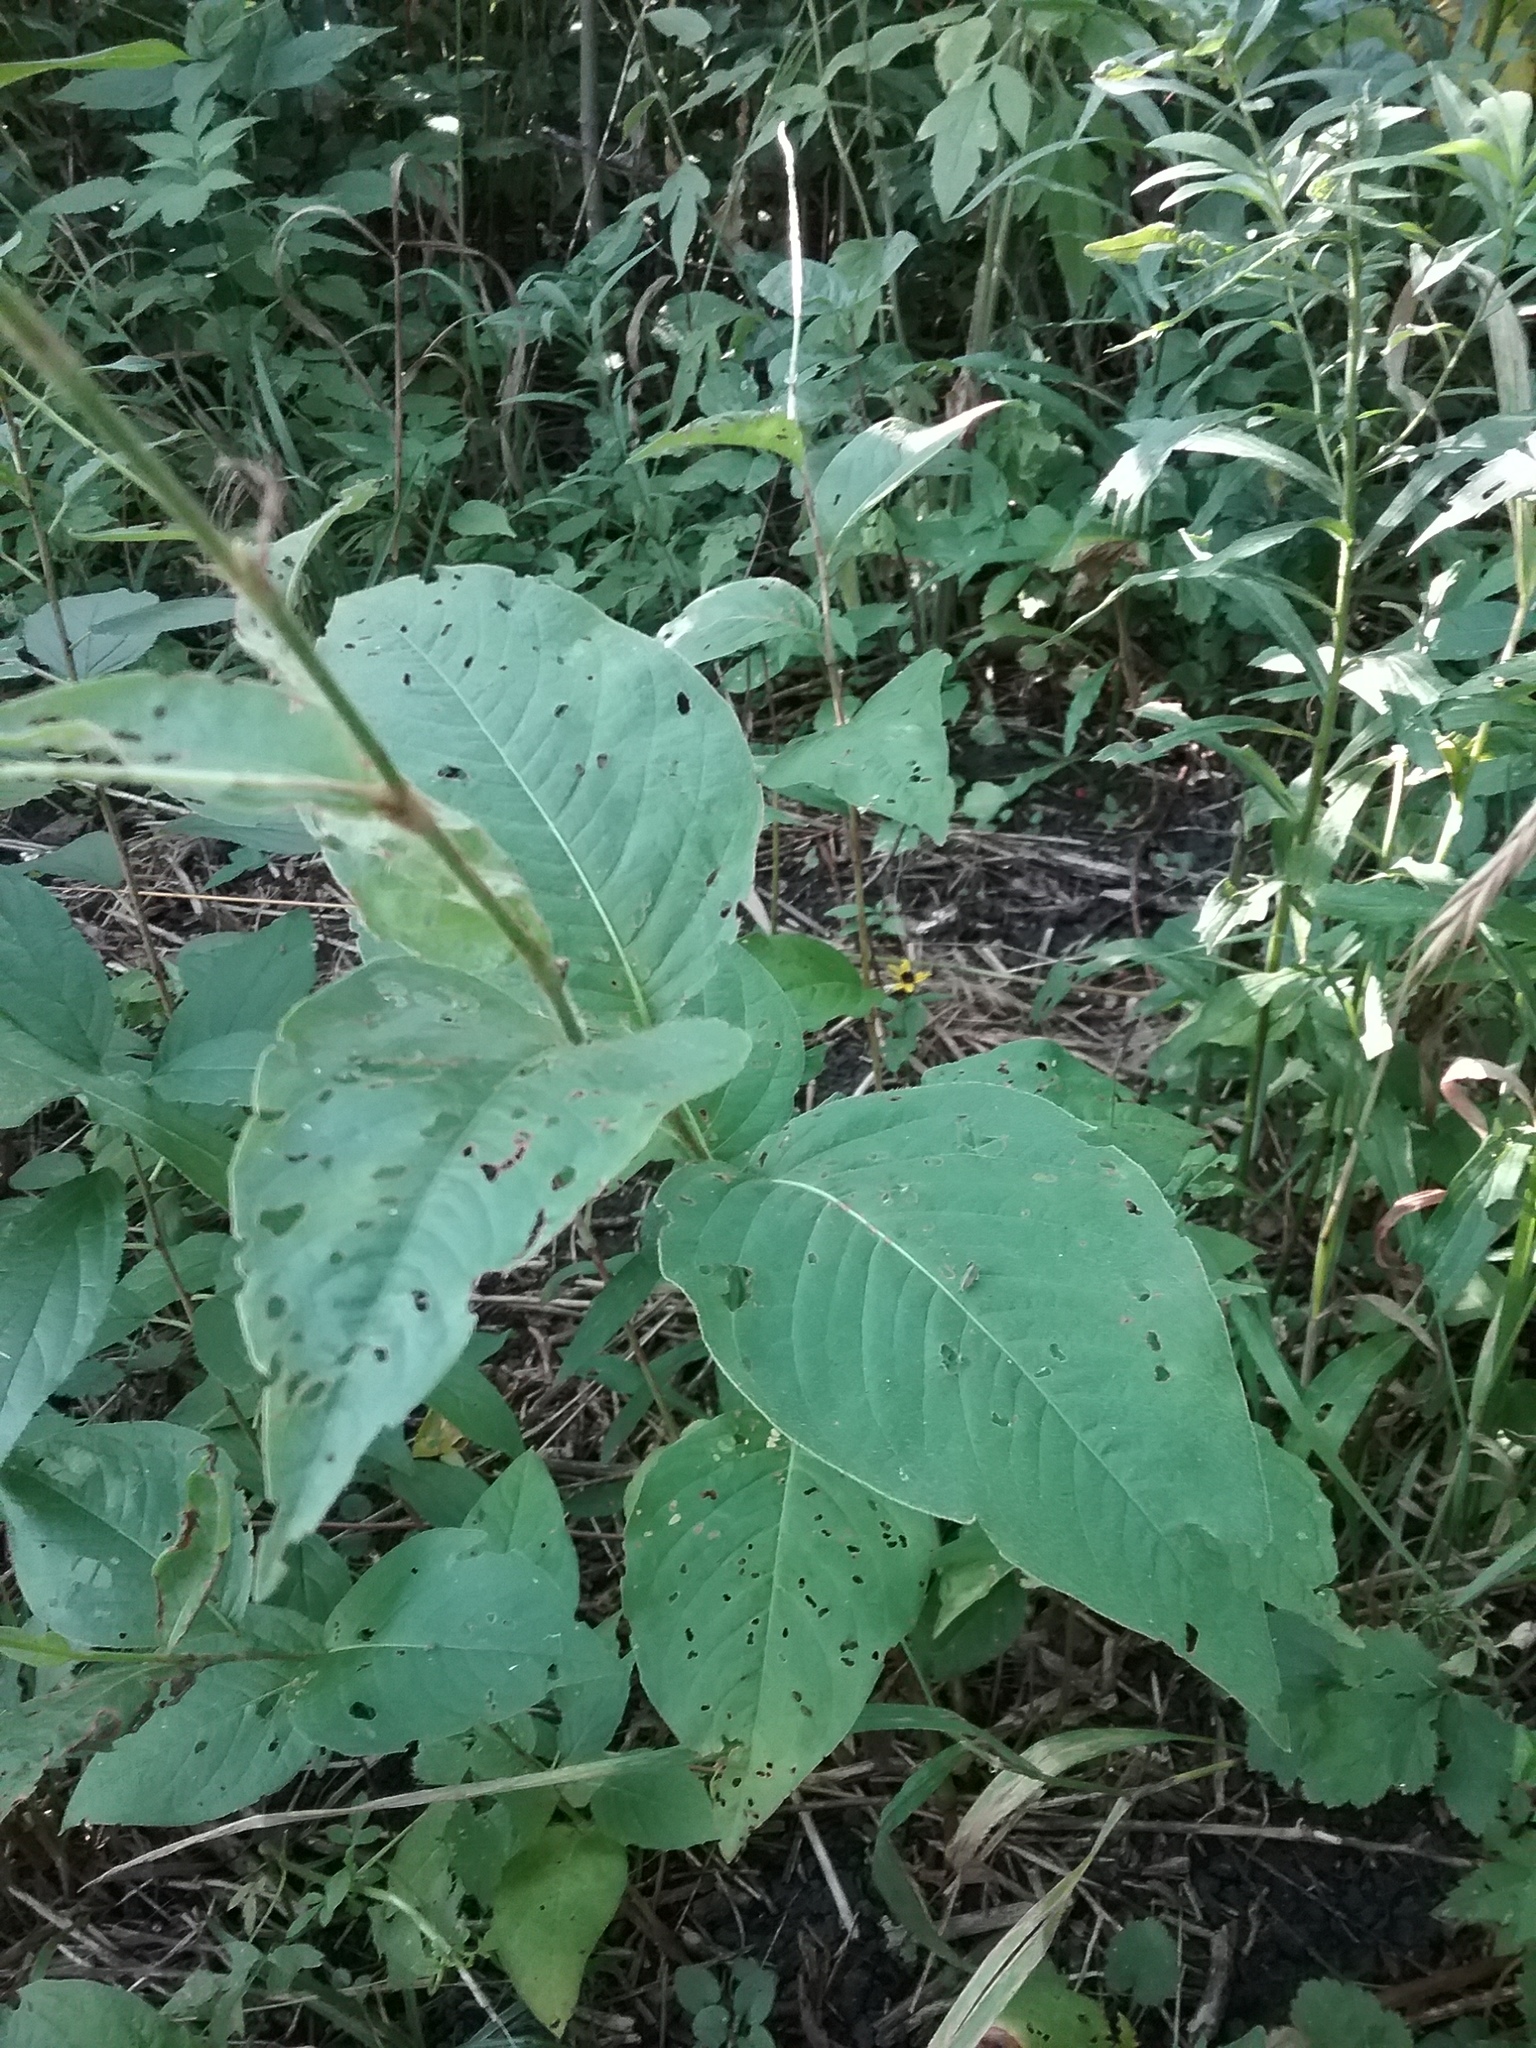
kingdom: Plantae
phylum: Tracheophyta
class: Magnoliopsida
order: Caryophyllales
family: Polygonaceae
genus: Persicaria
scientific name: Persicaria virginiana
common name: Jumpseed
